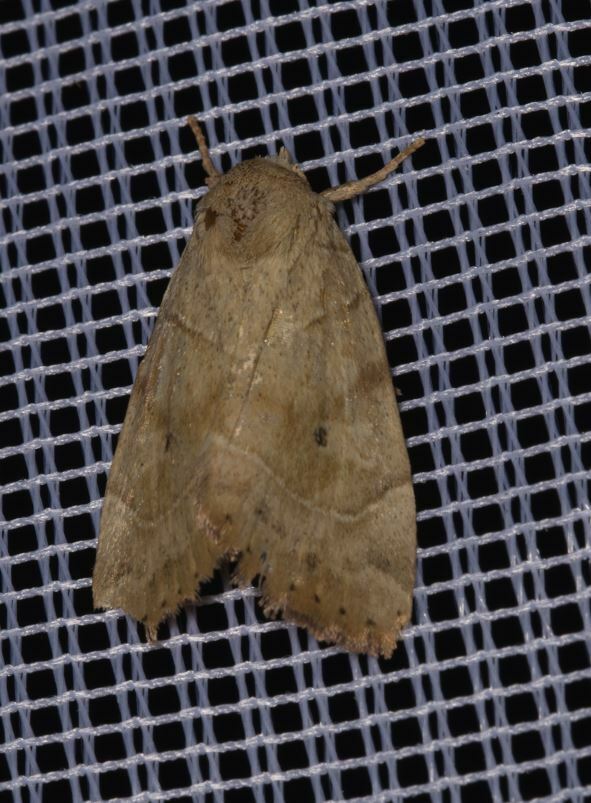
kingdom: Animalia
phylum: Arthropoda
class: Insecta
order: Lepidoptera
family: Noctuidae
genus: Cosmia
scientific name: Cosmia trapezina
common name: Dun-bar
